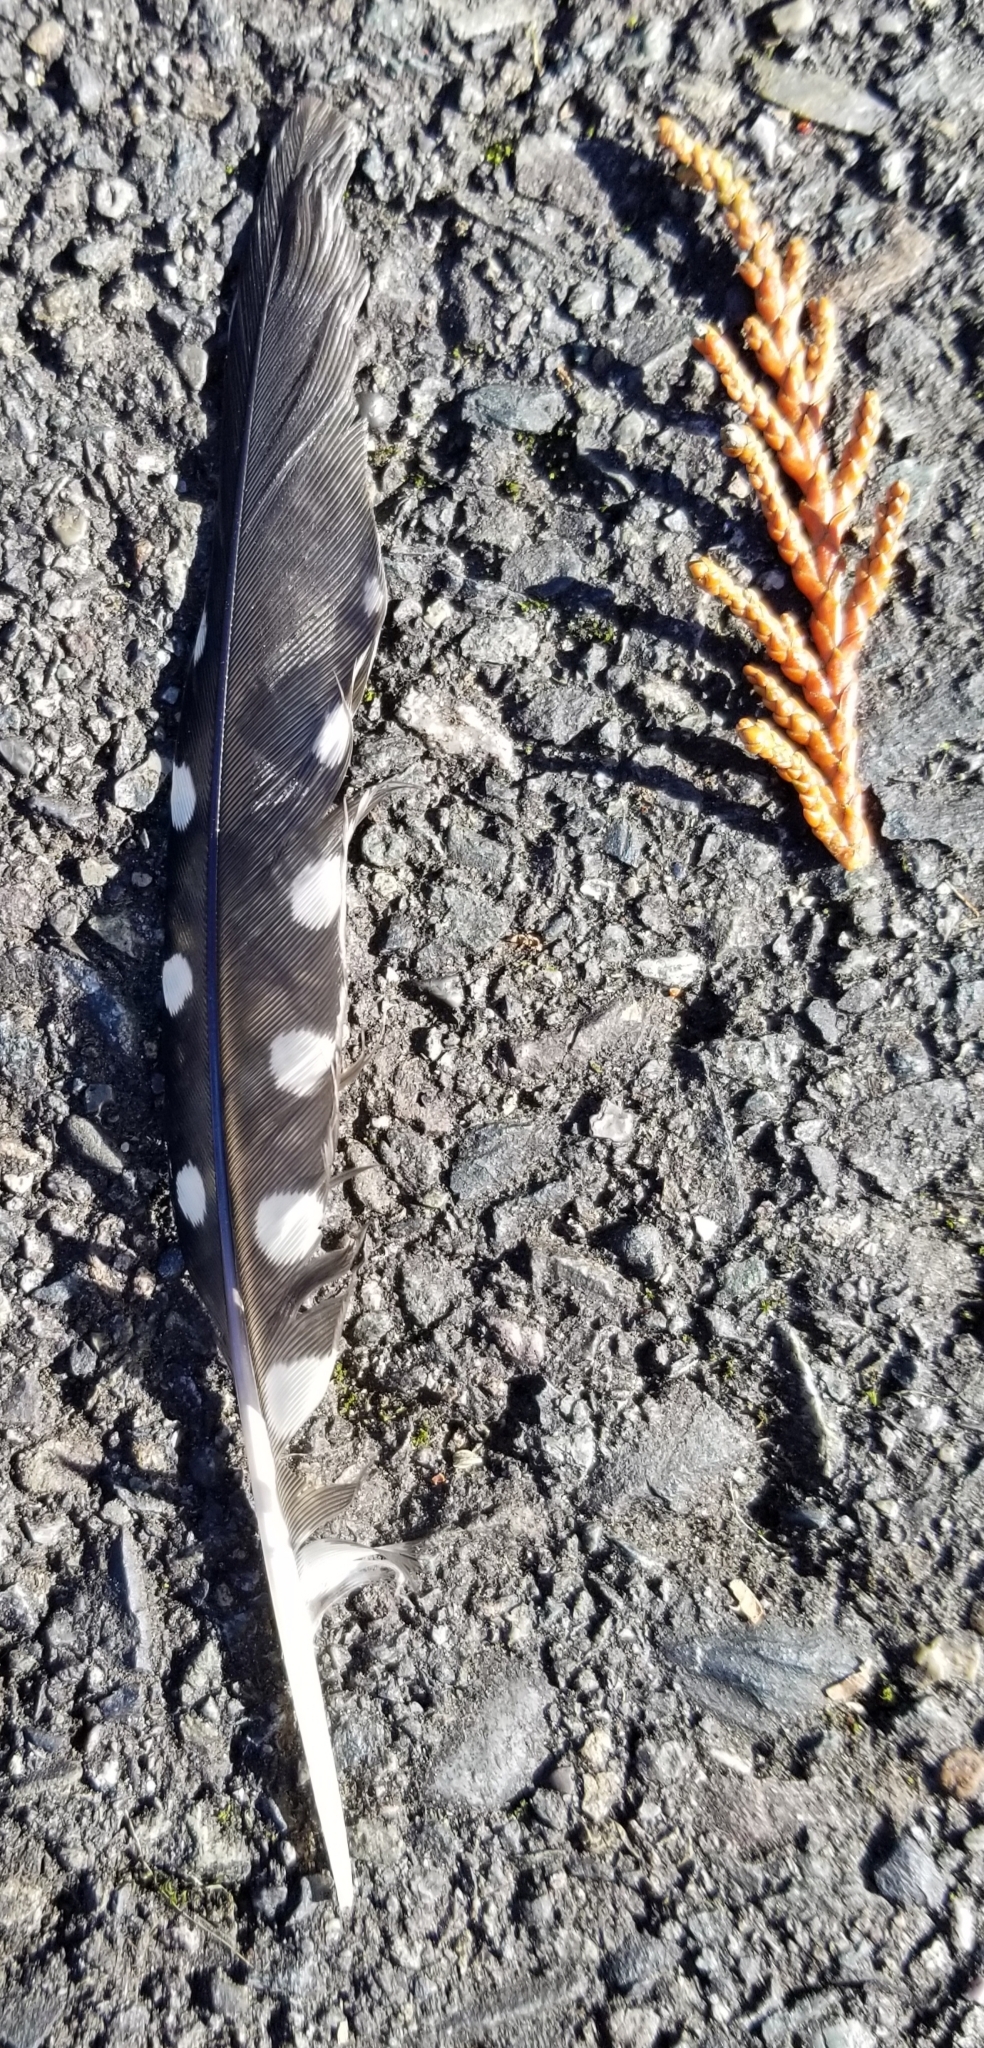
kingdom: Animalia
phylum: Chordata
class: Aves
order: Piciformes
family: Picidae
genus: Sphyrapicus
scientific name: Sphyrapicus ruber
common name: Red-breasted sapsucker
